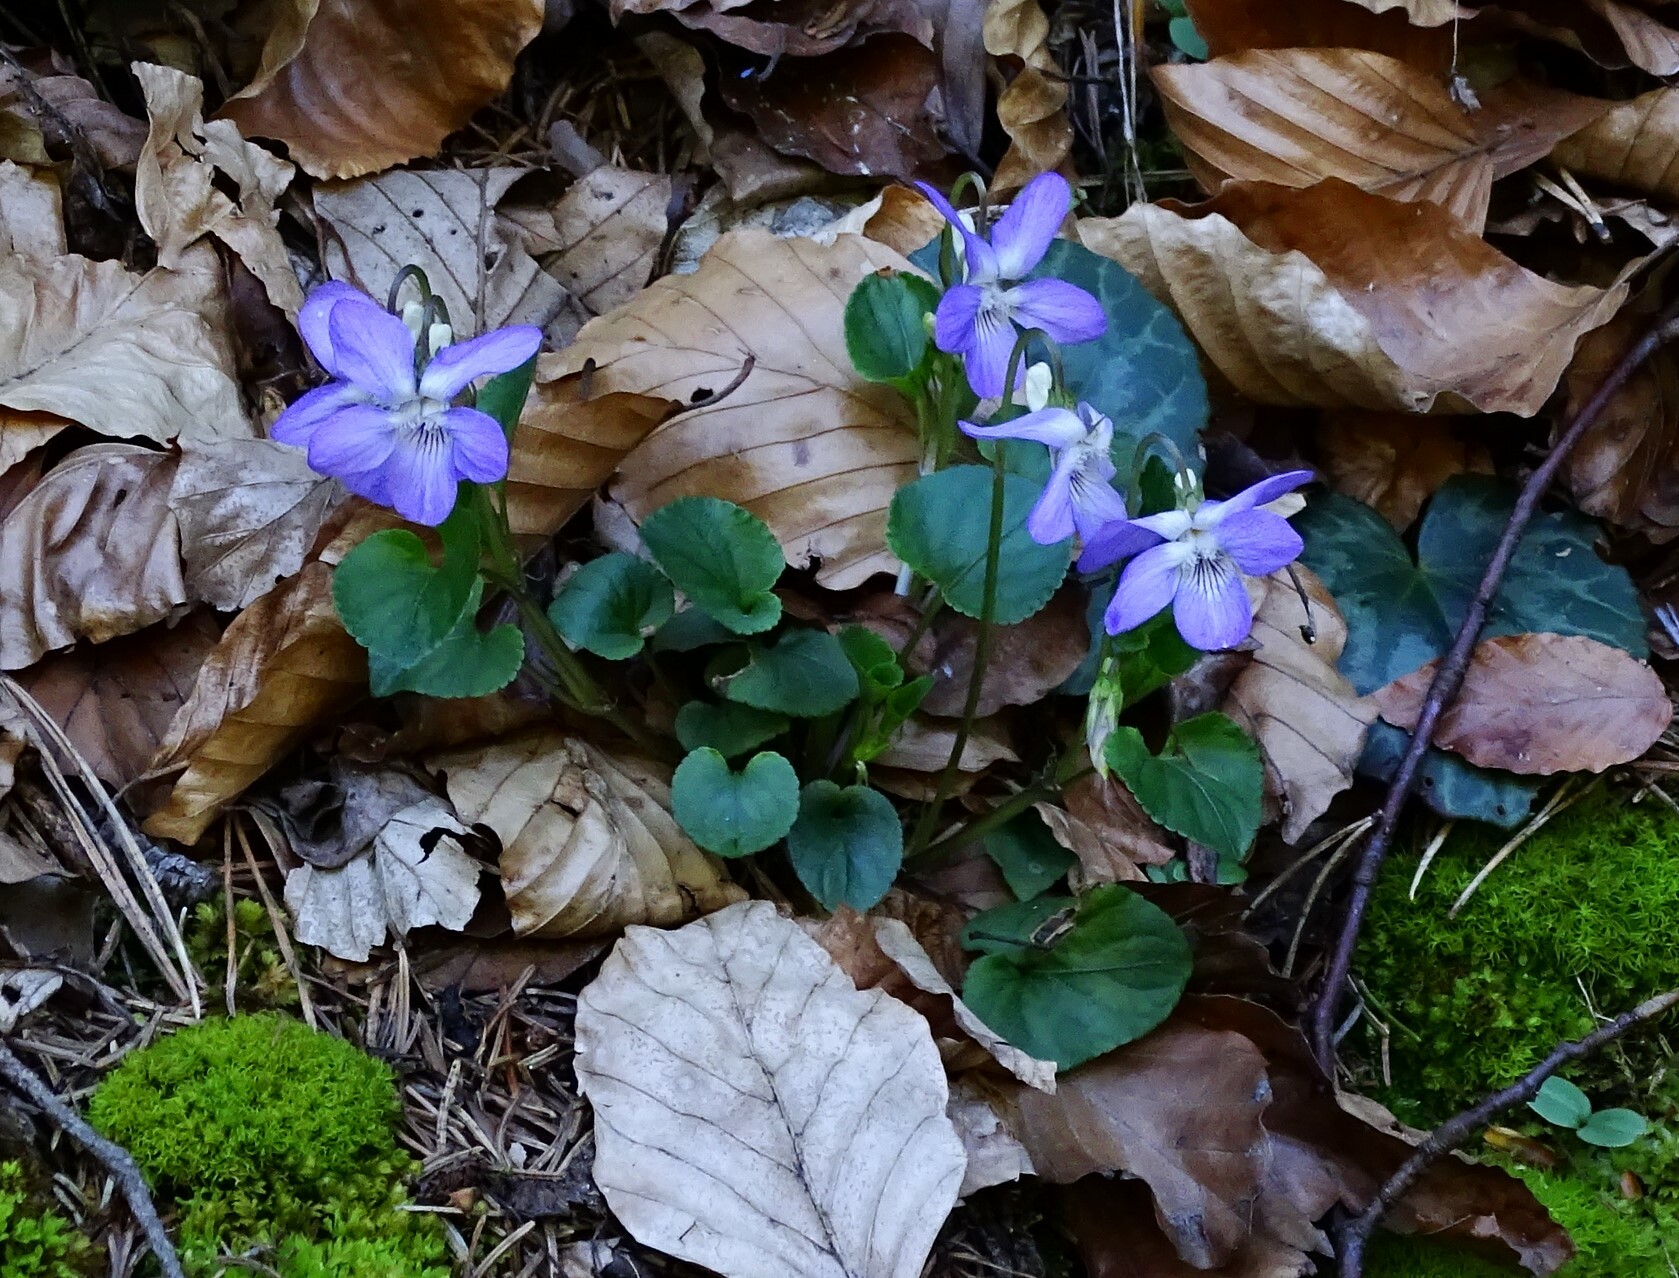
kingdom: Plantae
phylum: Tracheophyta
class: Magnoliopsida
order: Malpighiales
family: Violaceae
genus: Viola
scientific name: Viola riviniana
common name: Common dog-violet
